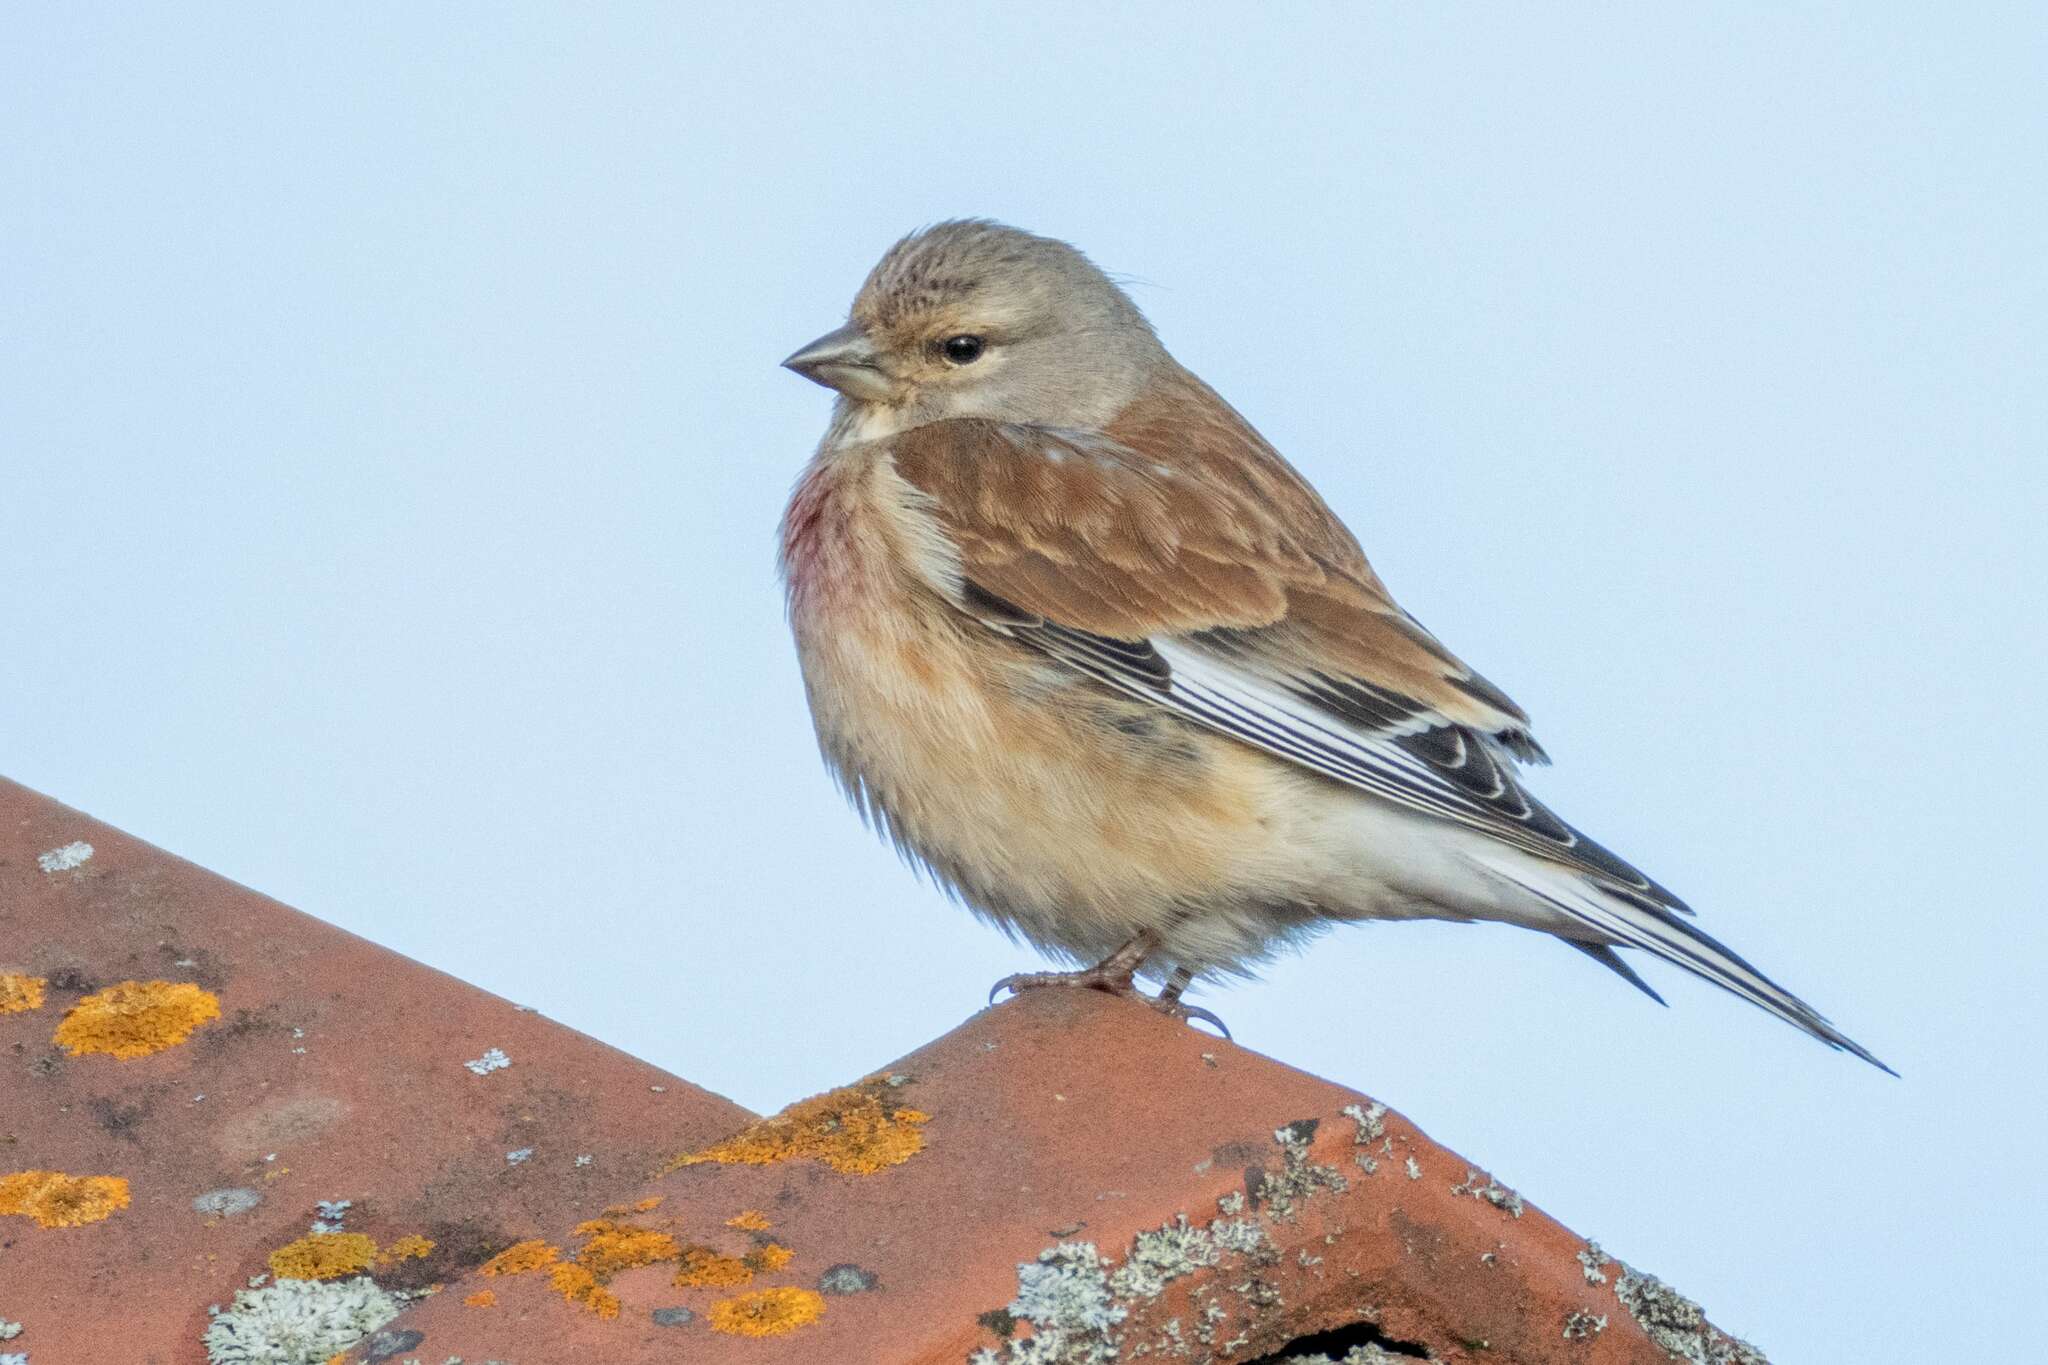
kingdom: Animalia
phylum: Chordata
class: Aves
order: Passeriformes
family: Fringillidae
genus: Linaria
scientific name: Linaria cannabina
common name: Common linnet
